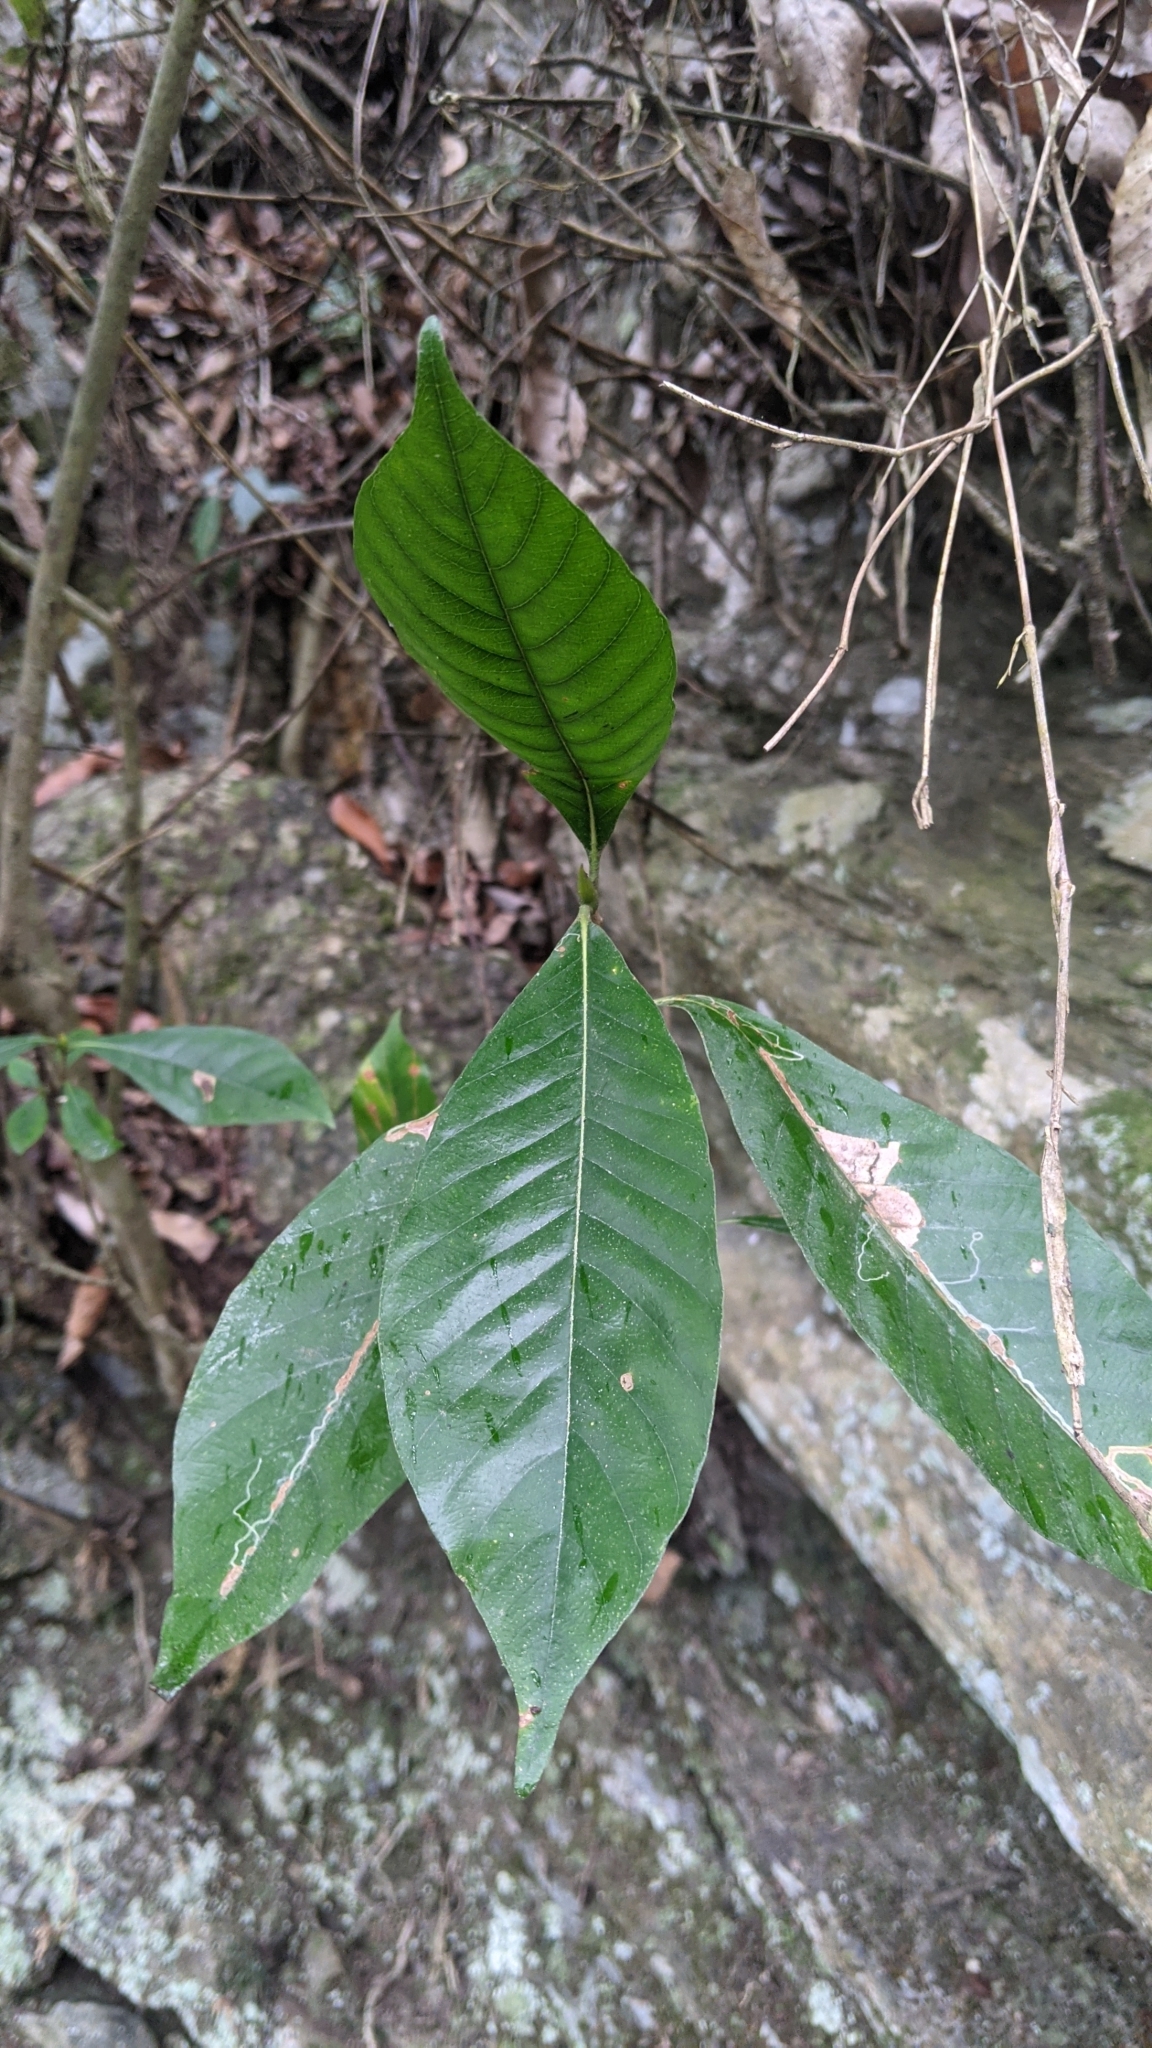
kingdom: Plantae
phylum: Tracheophyta
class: Magnoliopsida
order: Gentianales
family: Rubiaceae
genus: Gardenia
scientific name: Gardenia jasminoides
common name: Cape-jasmine
